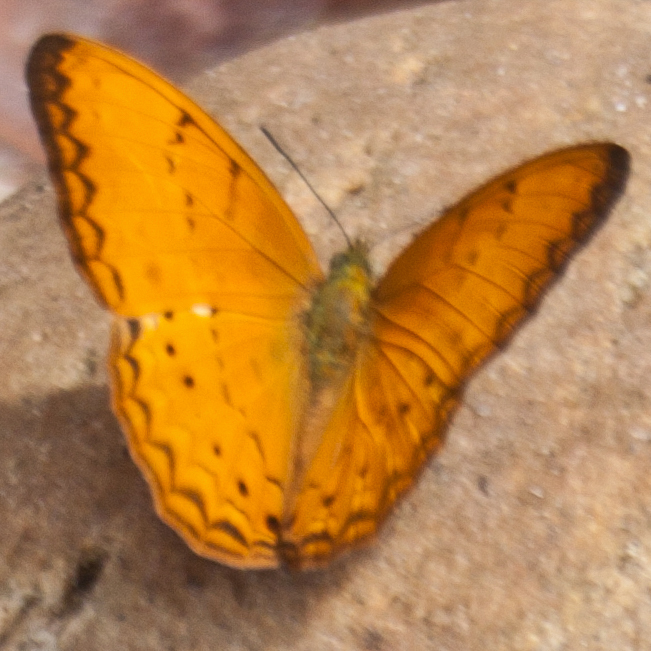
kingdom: Animalia
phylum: Arthropoda
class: Insecta
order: Lepidoptera
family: Nymphalidae
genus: Cirrochroa
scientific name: Cirrochroa tyche
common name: Common yeoman
